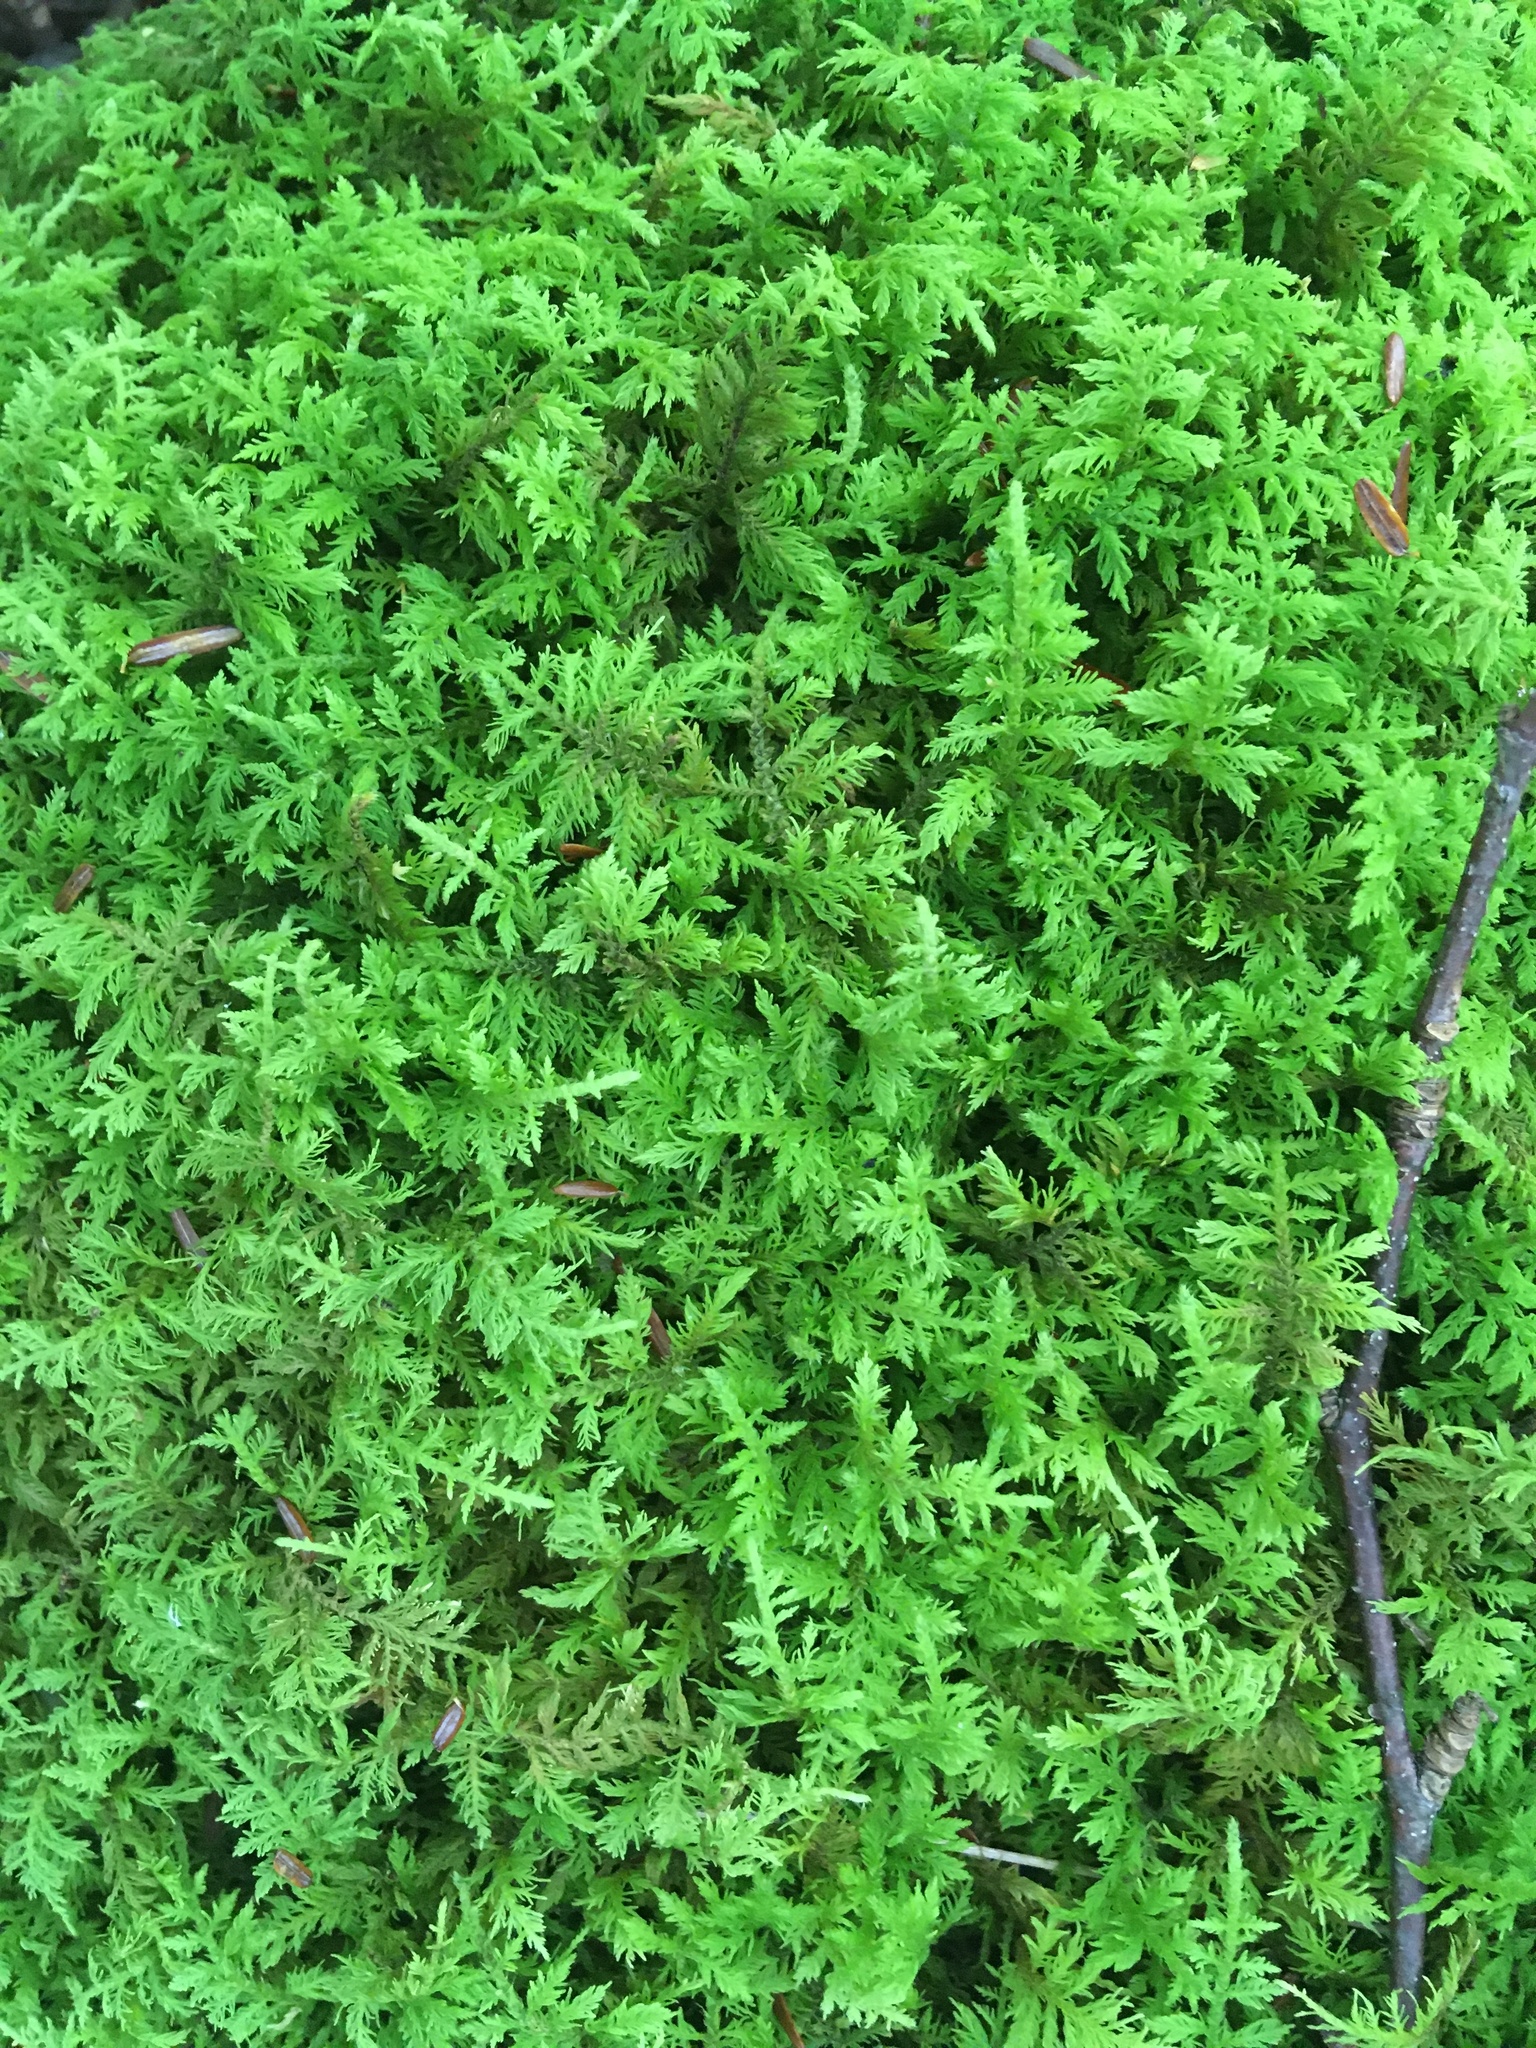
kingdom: Plantae
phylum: Bryophyta
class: Bryopsida
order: Hypnales
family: Thuidiaceae
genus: Thuidium
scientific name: Thuidium delicatulum
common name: Delicate fern moss
